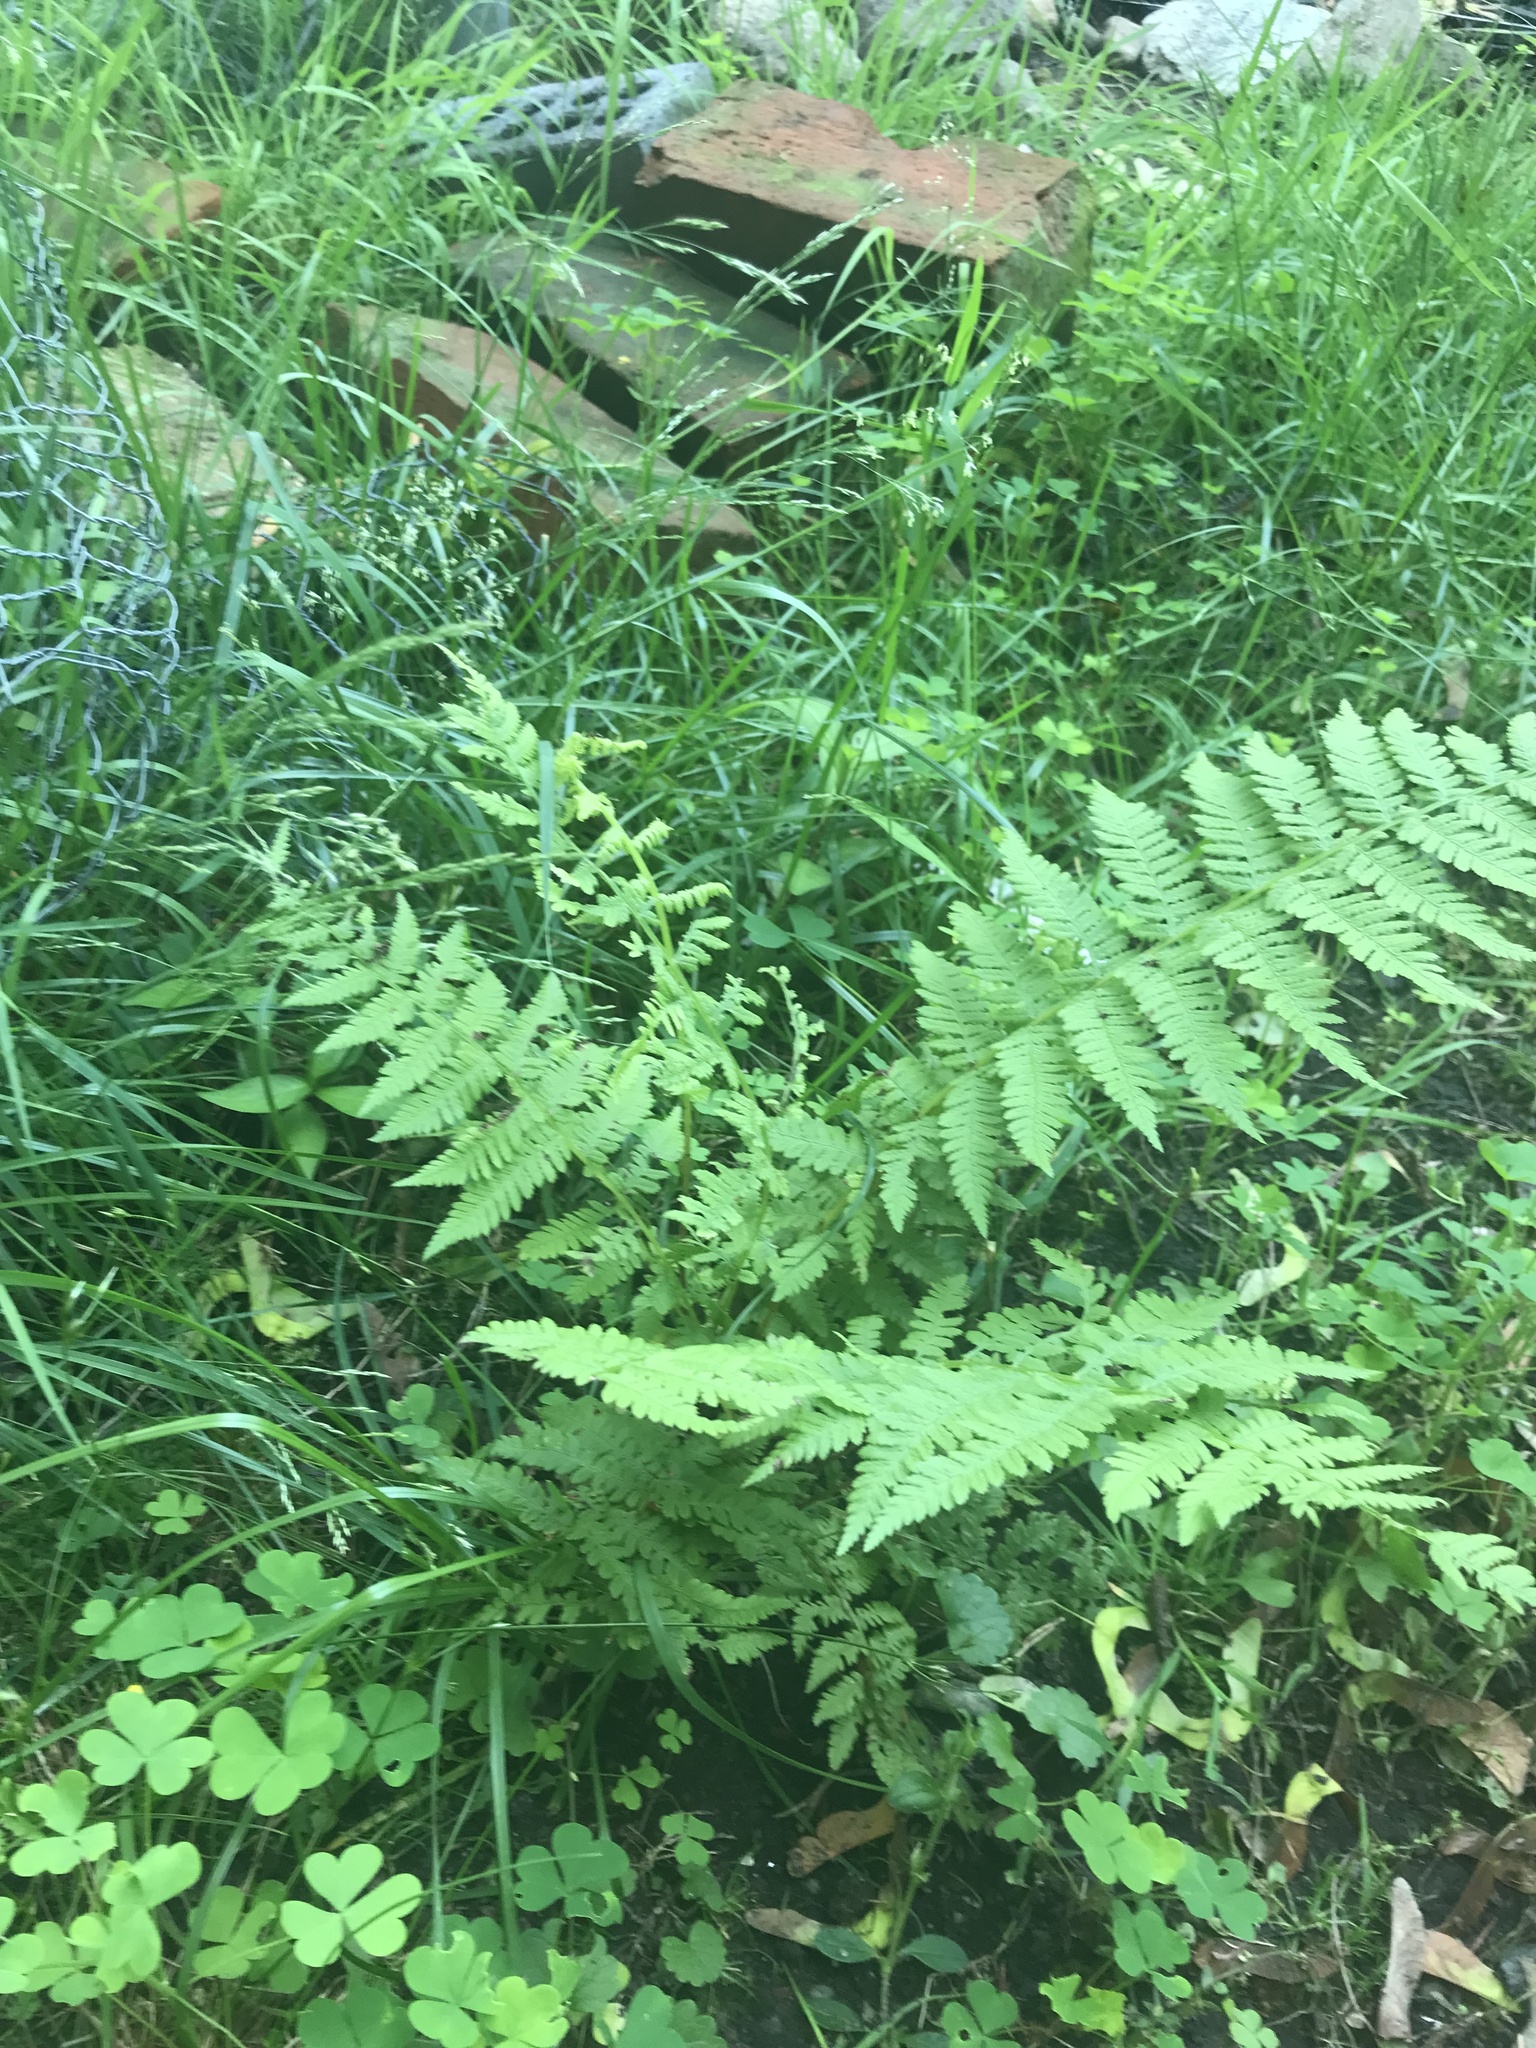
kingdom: Plantae
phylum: Tracheophyta
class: Polypodiopsida
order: Polypodiales
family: Athyriaceae
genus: Athyrium
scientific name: Athyrium angustum
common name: Northern lady fern
